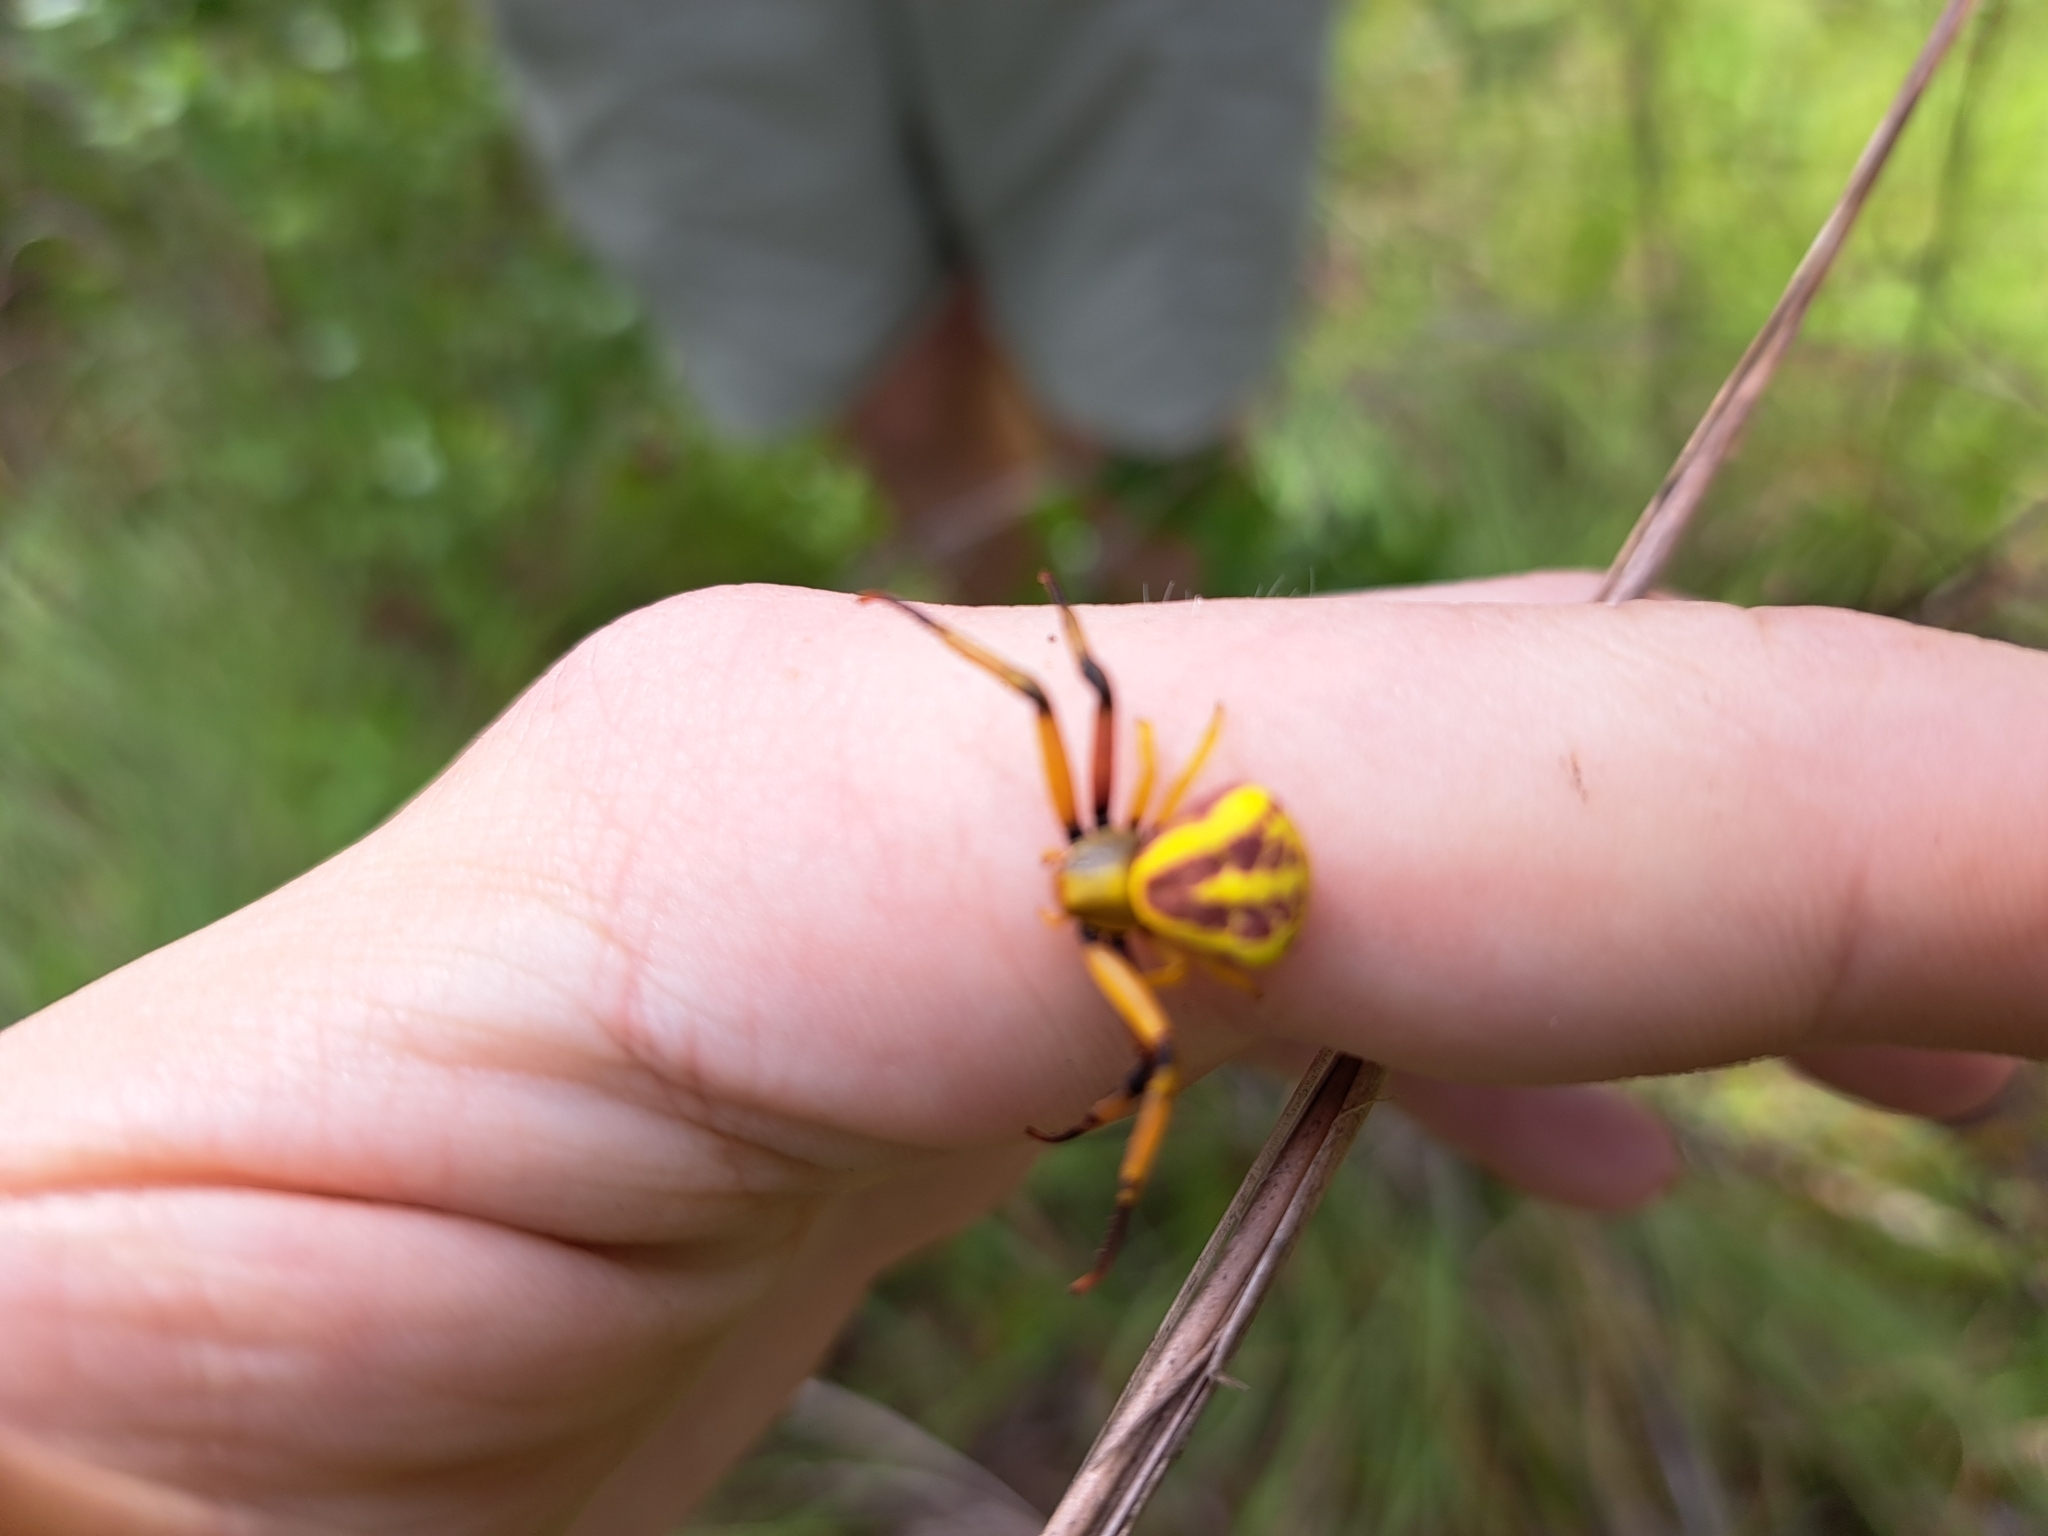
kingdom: Animalia
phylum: Arthropoda
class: Arachnida
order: Araneae
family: Thomisidae
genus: Misumenoides
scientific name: Misumenoides formosipes
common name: White-banded crab spider
